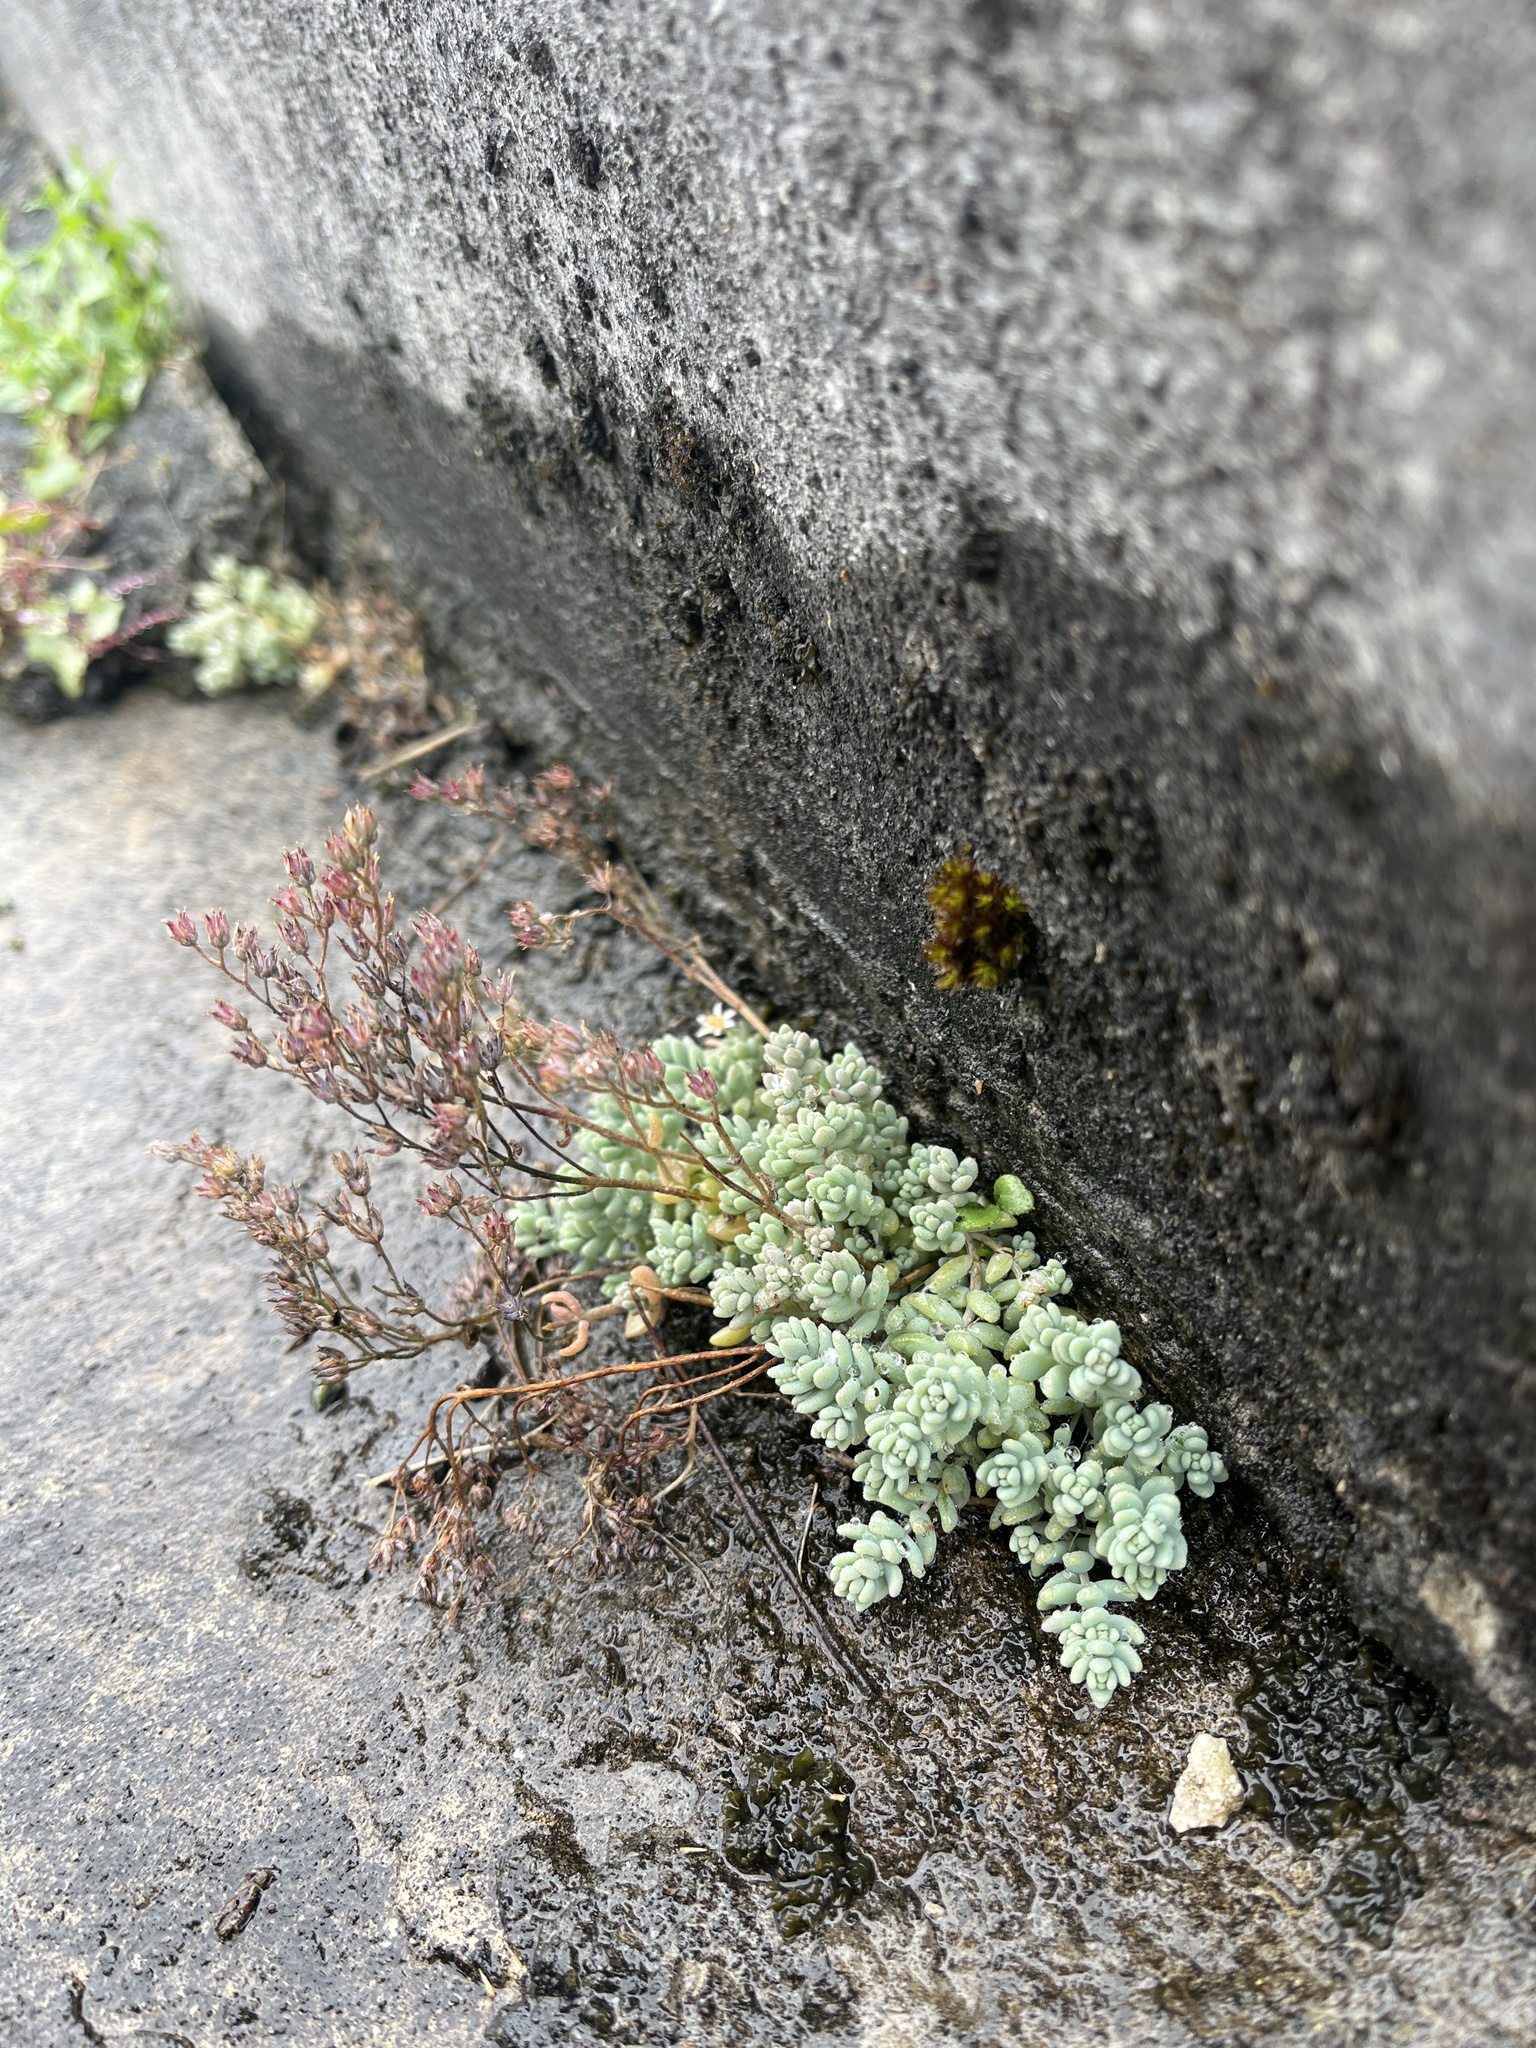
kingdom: Plantae
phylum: Tracheophyta
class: Magnoliopsida
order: Saxifragales
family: Crassulaceae
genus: Sedum
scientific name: Sedum dasyphyllum
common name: Thick-leaf stonecrop
